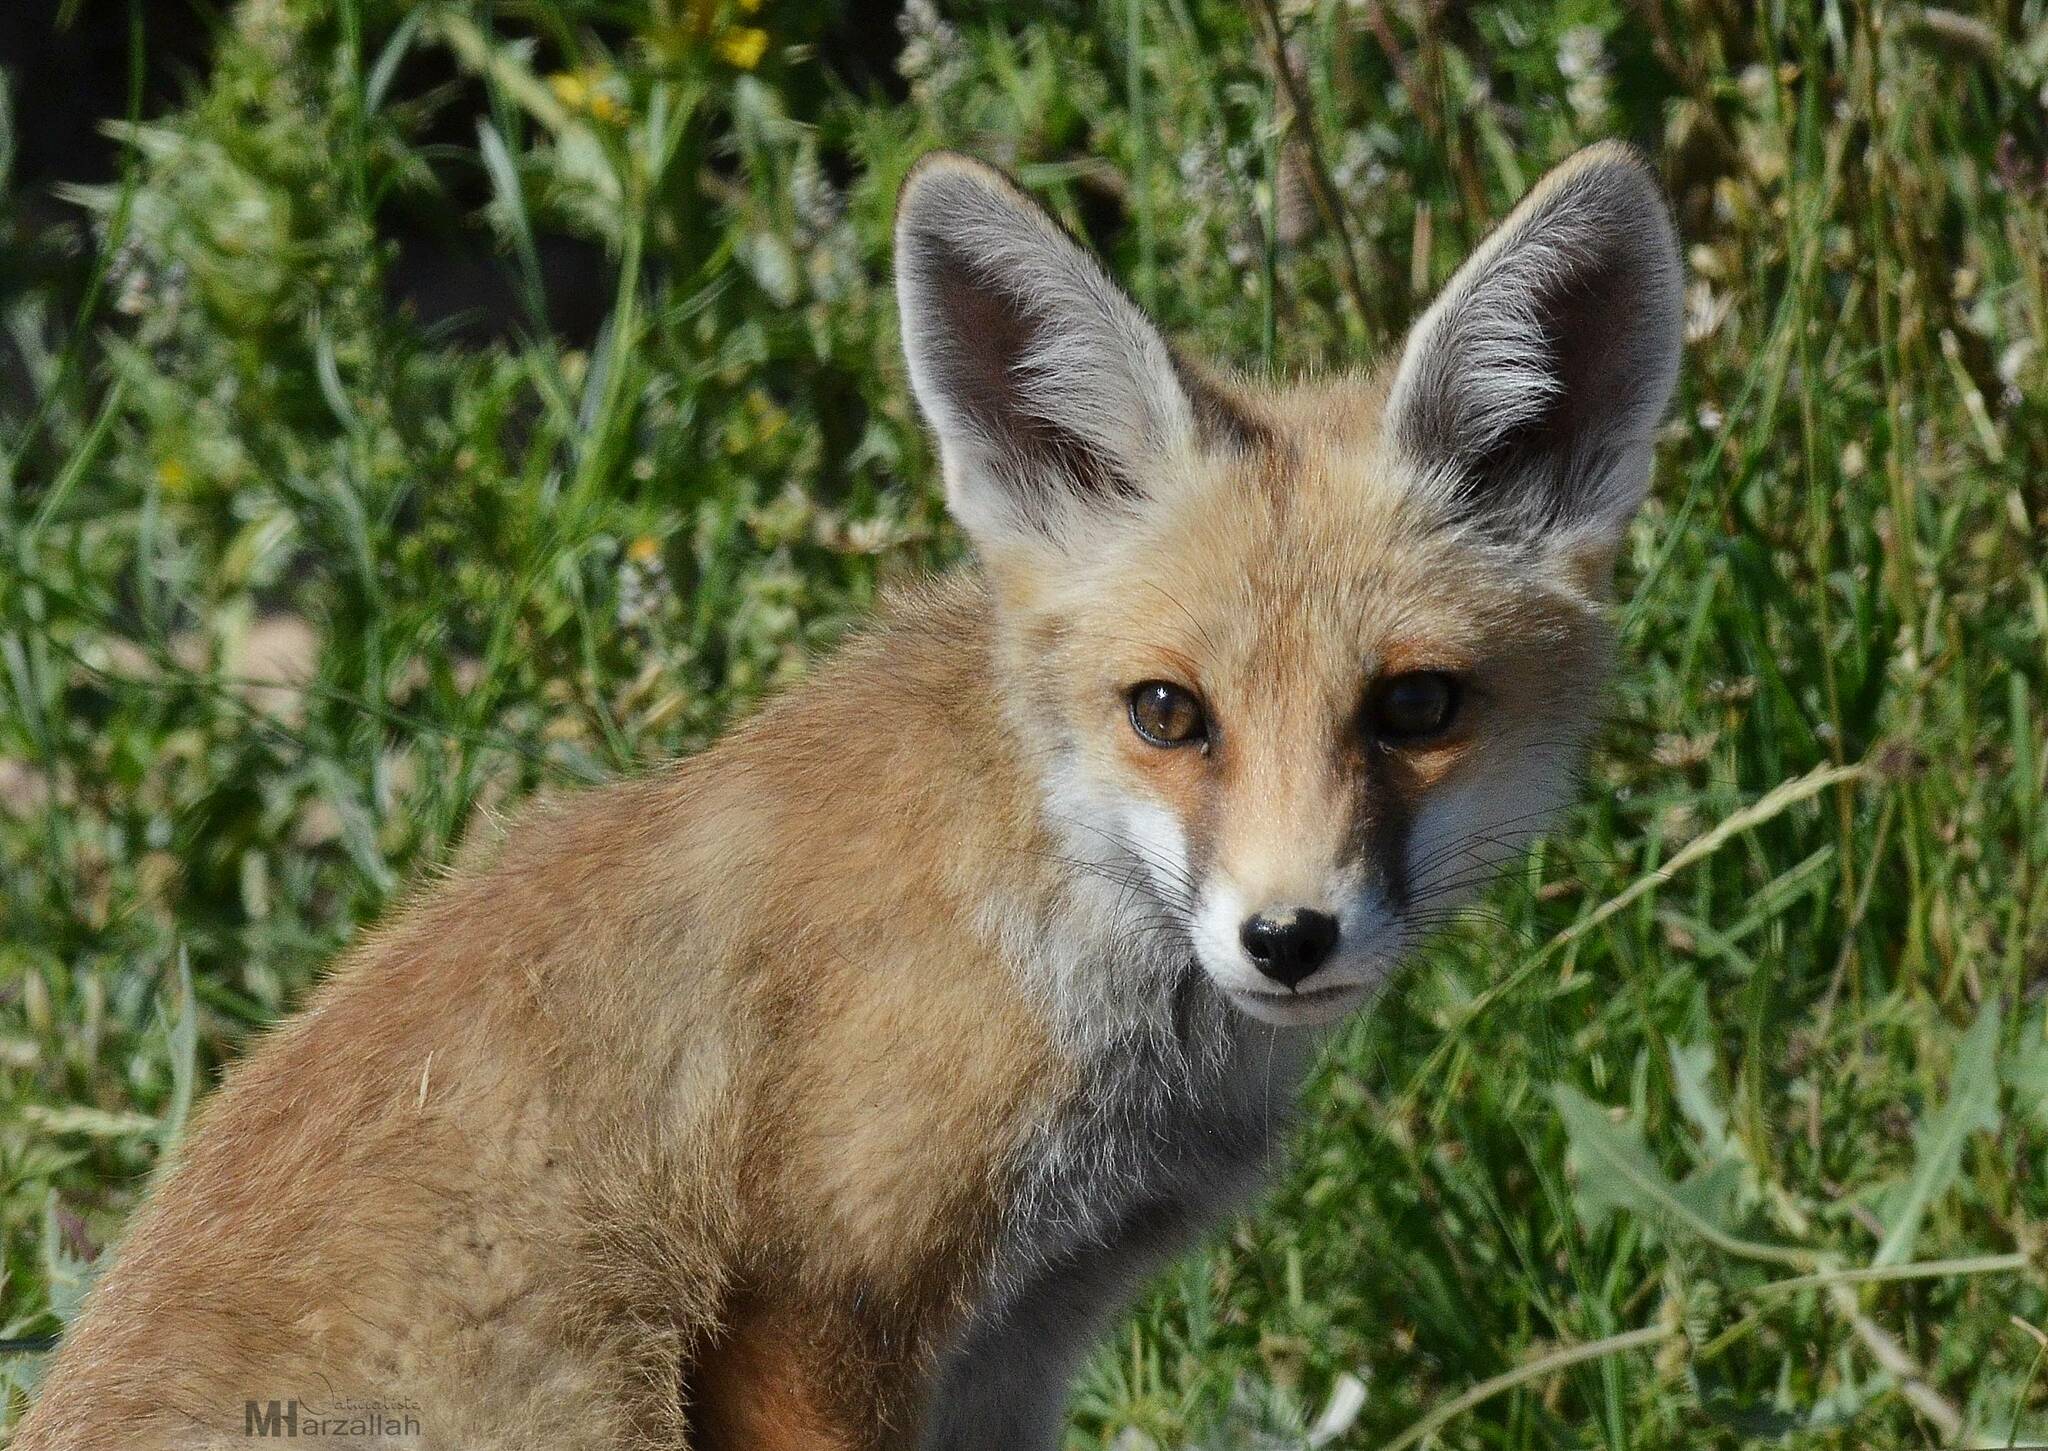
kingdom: Animalia
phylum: Chordata
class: Mammalia
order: Carnivora
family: Canidae
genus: Vulpes
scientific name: Vulpes vulpes
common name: Red fox
